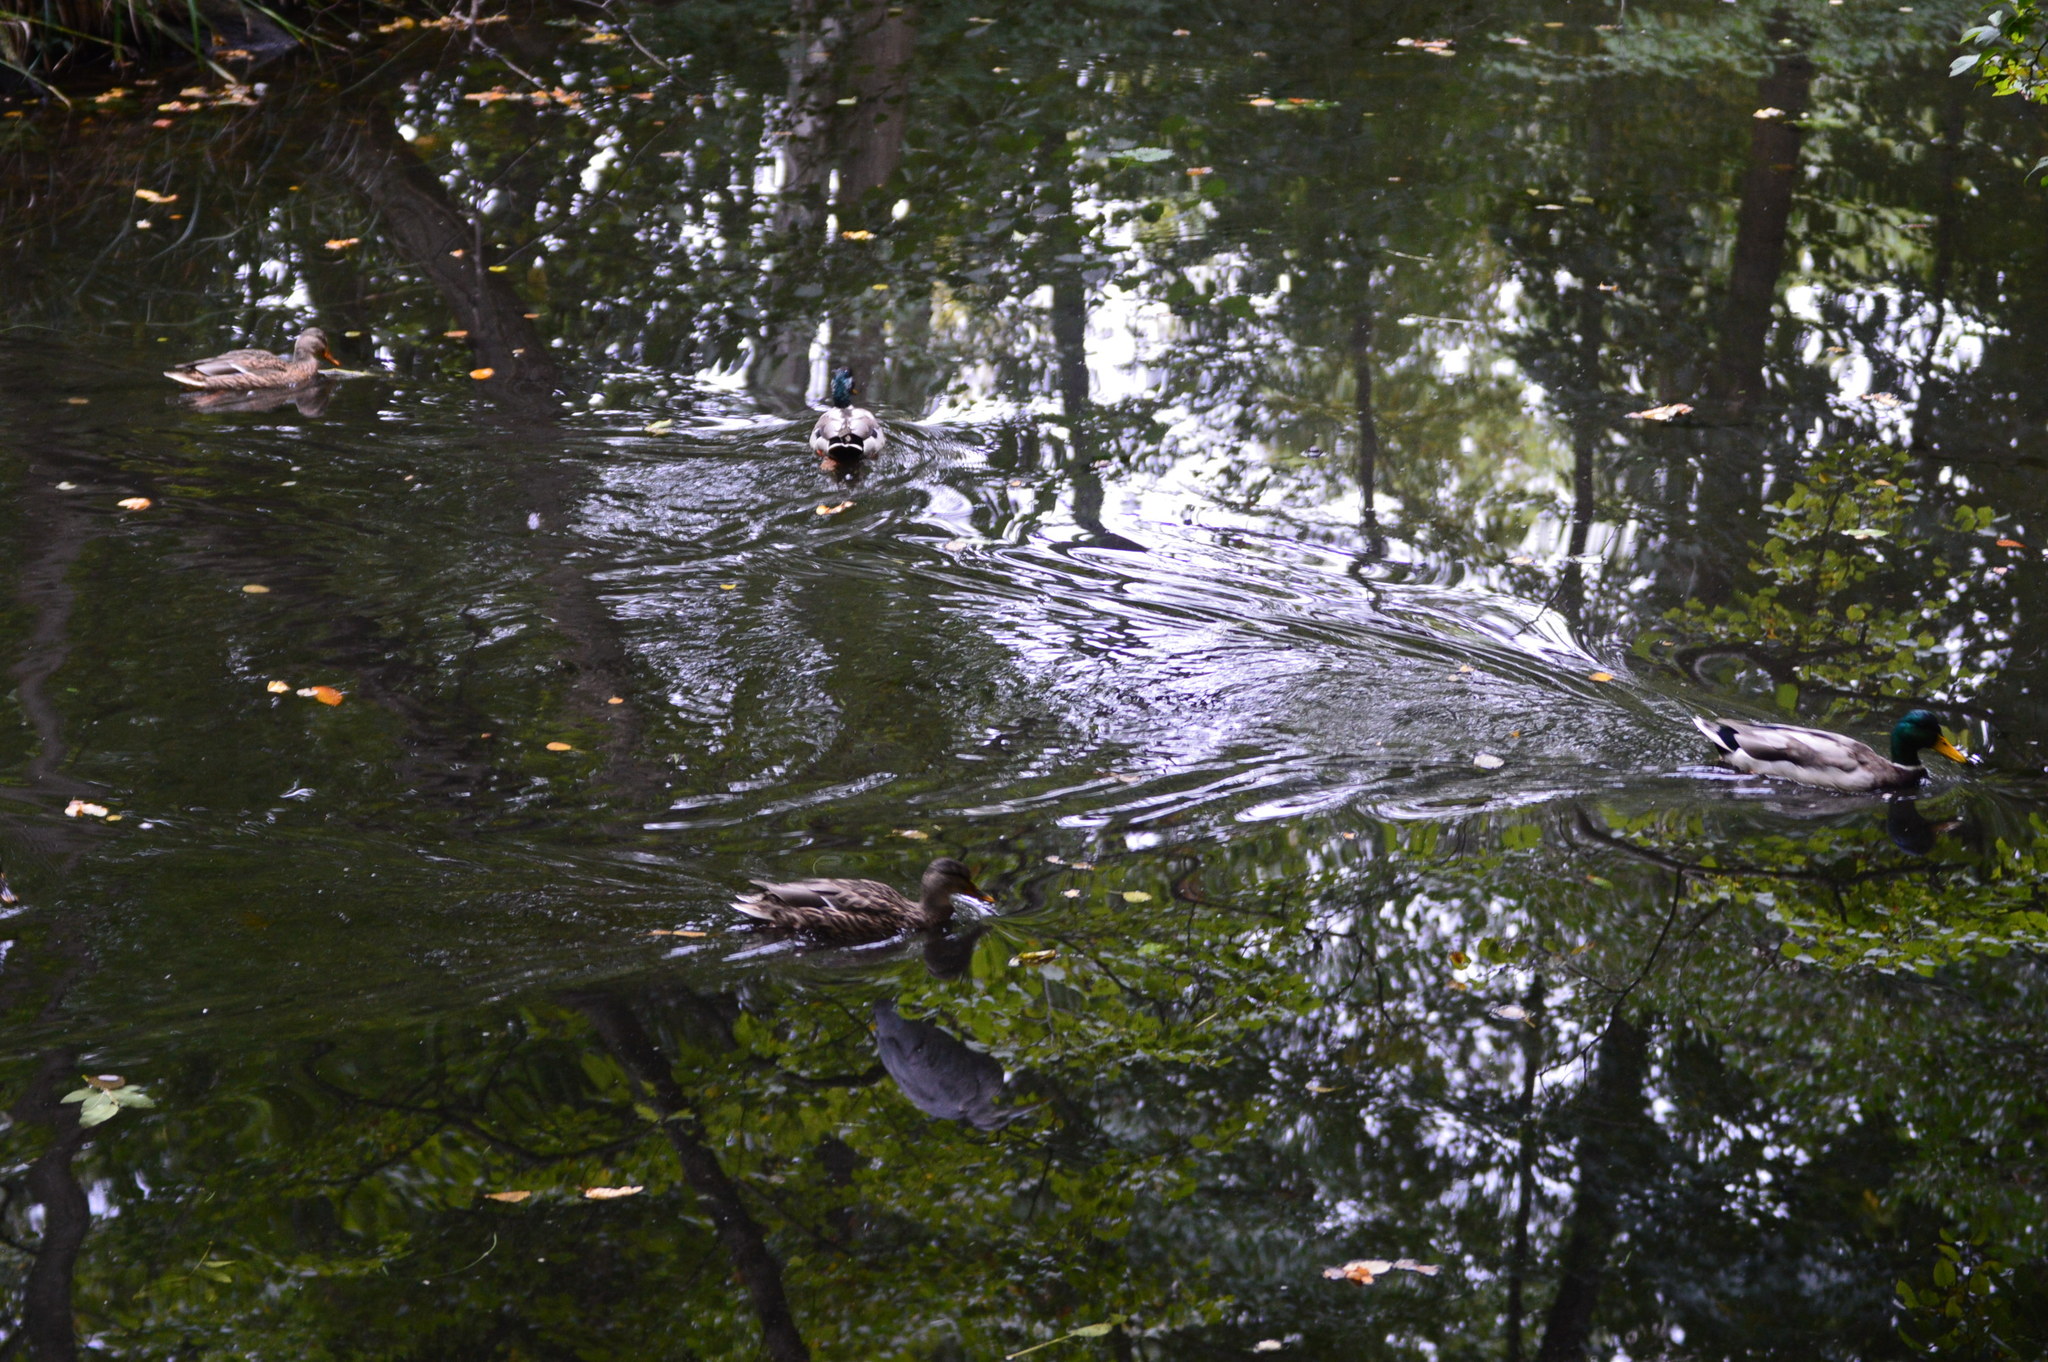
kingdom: Animalia
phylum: Chordata
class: Aves
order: Anseriformes
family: Anatidae
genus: Anas
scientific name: Anas platyrhynchos
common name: Mallard
